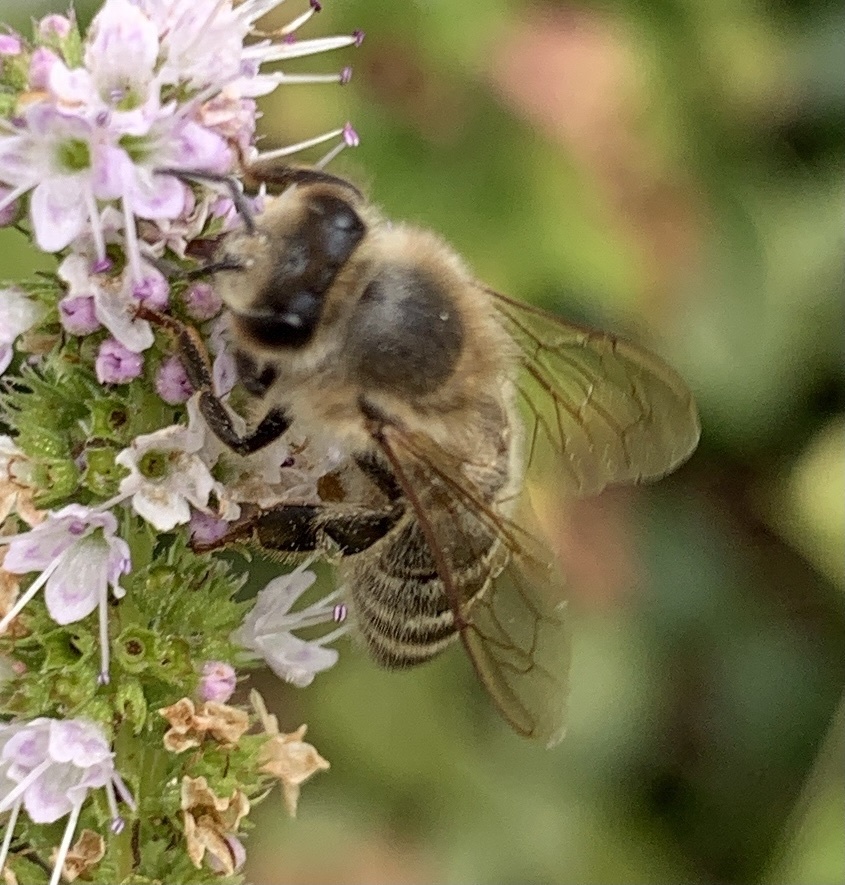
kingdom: Animalia
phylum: Arthropoda
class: Insecta
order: Hymenoptera
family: Apidae
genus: Apis
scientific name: Apis mellifera
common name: Honey bee
